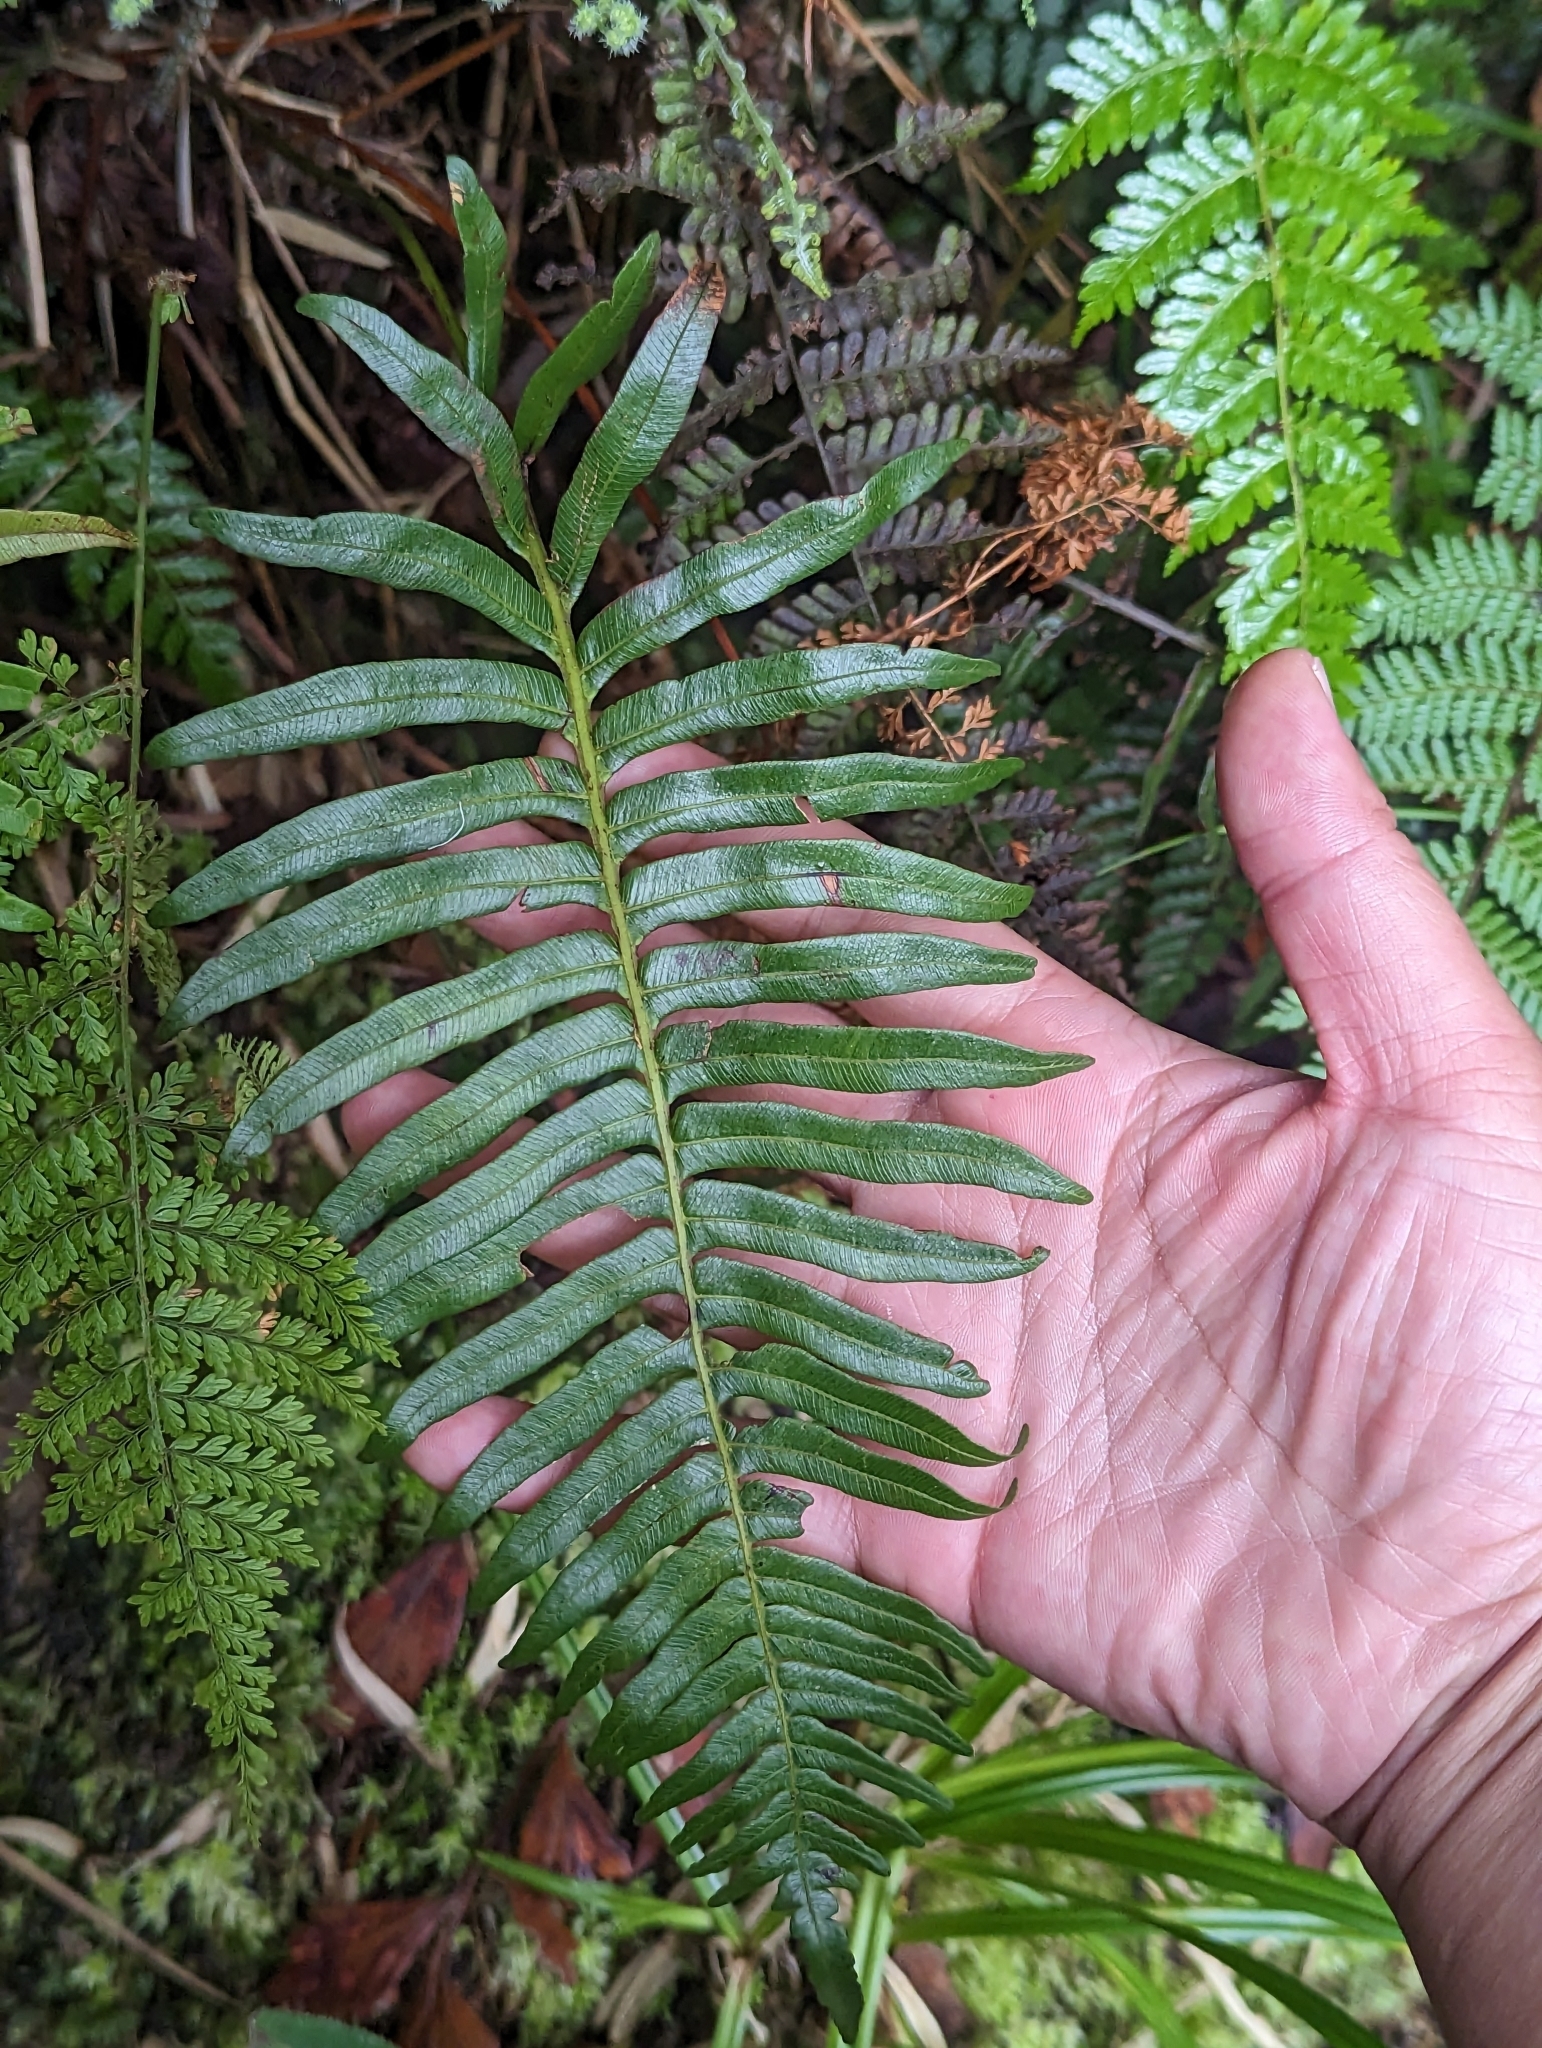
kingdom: Plantae
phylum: Tracheophyta
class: Polypodiopsida
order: Cyatheales
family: Plagiogyriaceae
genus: Plagiogyria
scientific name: Plagiogyria adnata
